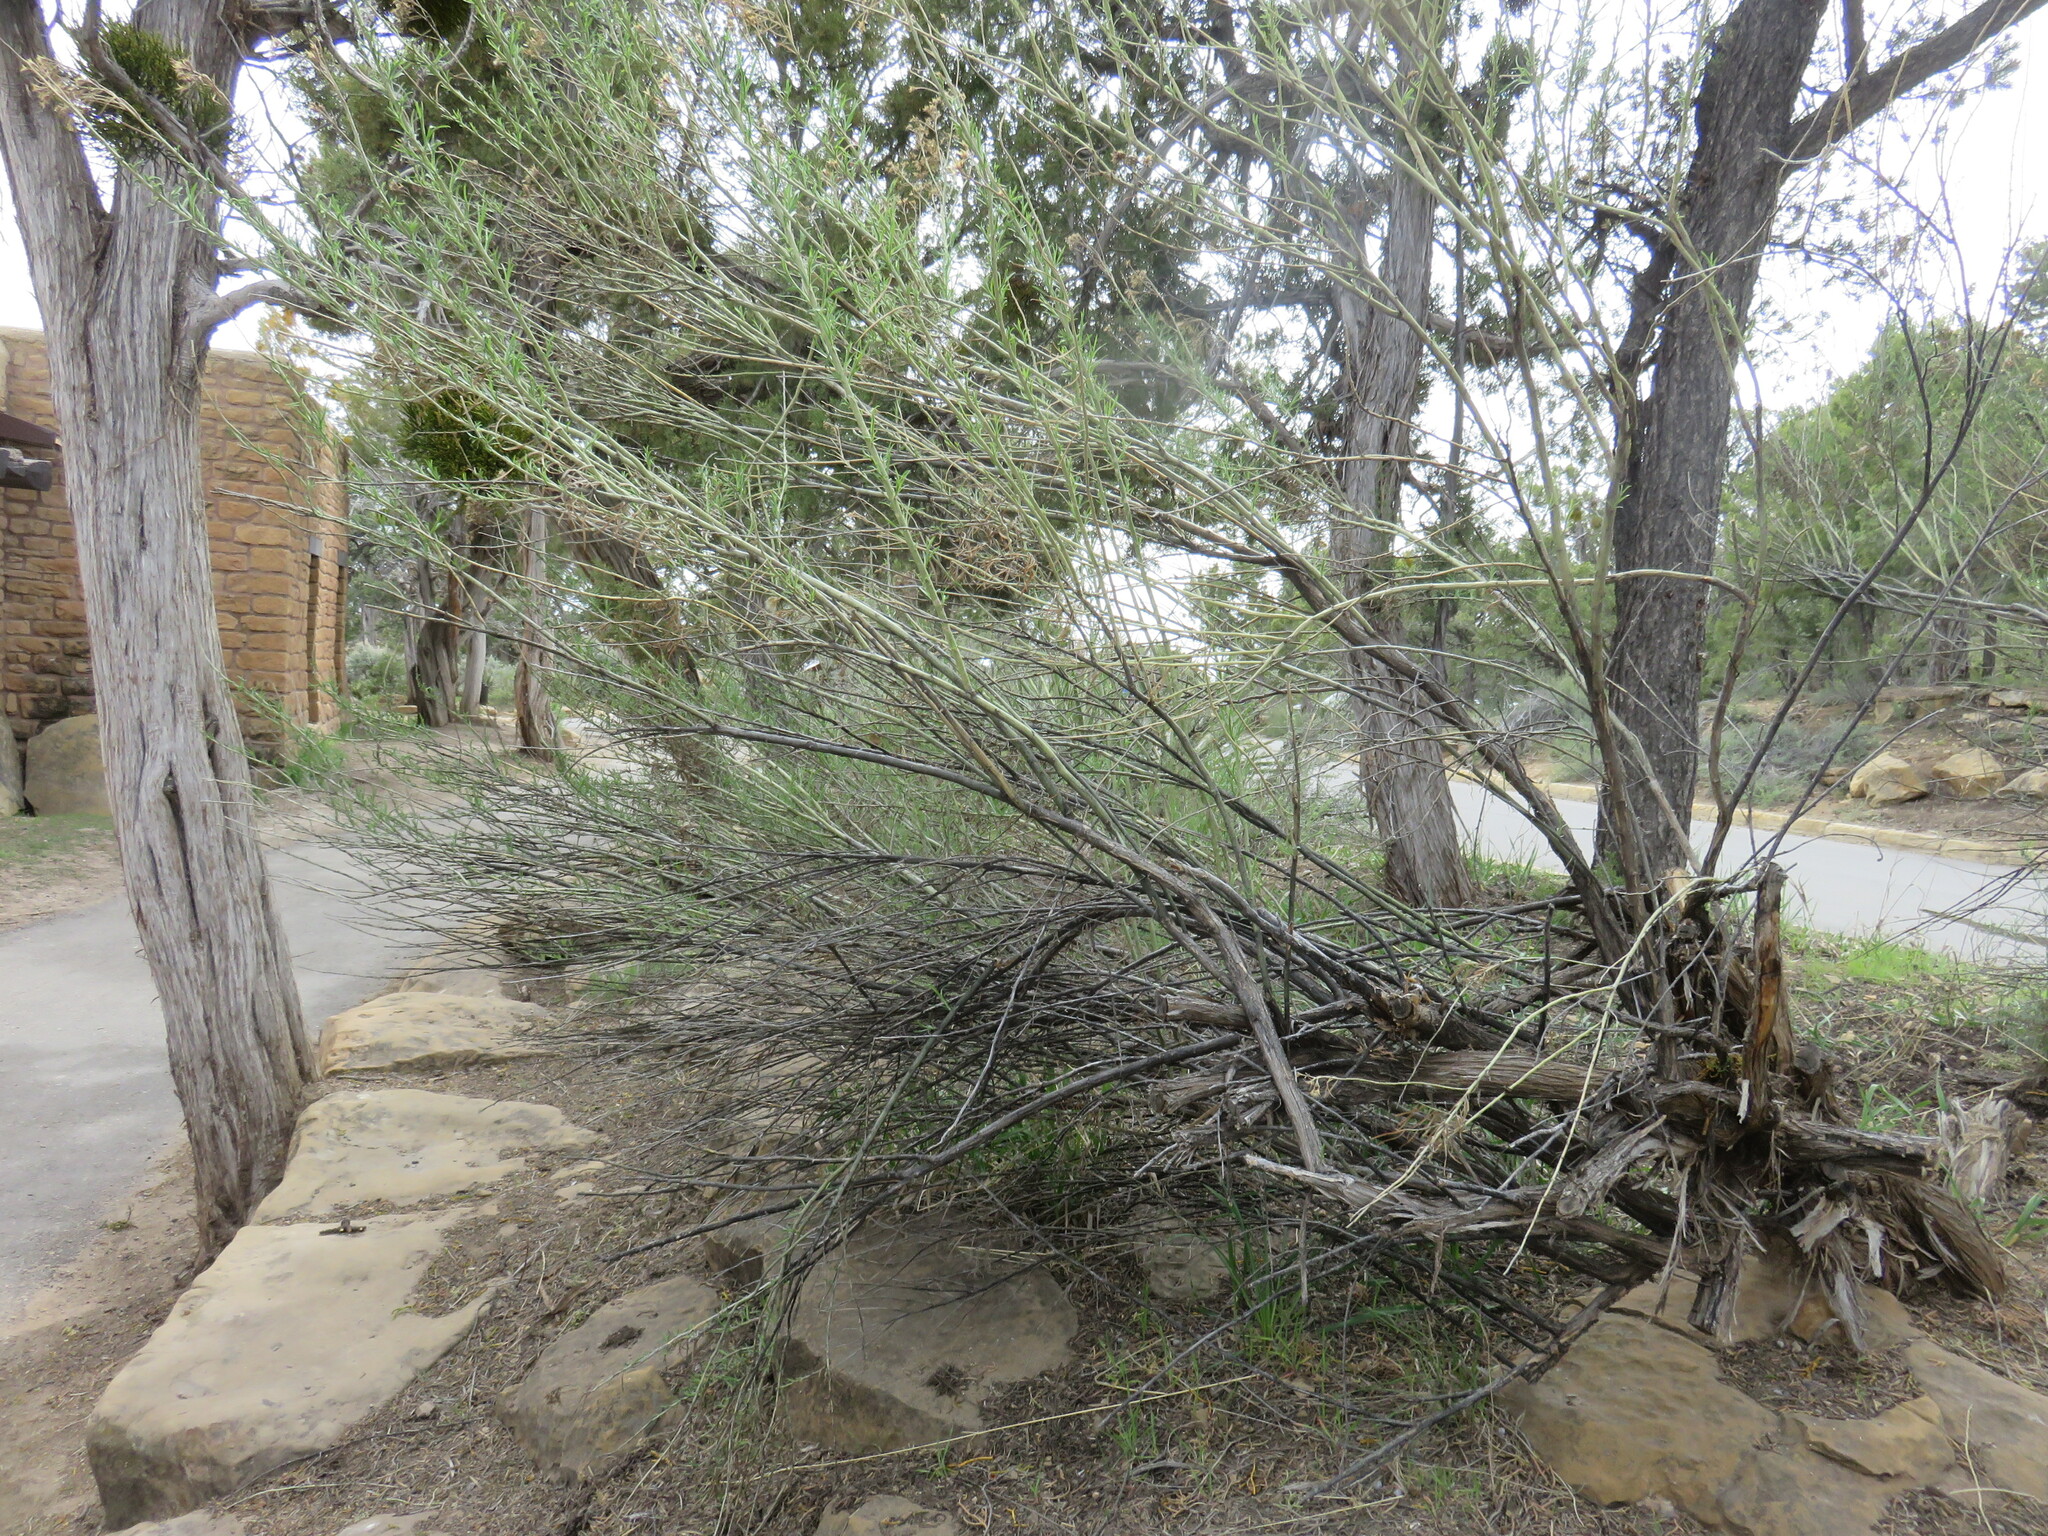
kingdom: Plantae
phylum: Tracheophyta
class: Magnoliopsida
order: Asterales
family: Asteraceae
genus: Ericameria
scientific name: Ericameria nauseosa
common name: Rubber rabbitbrush
